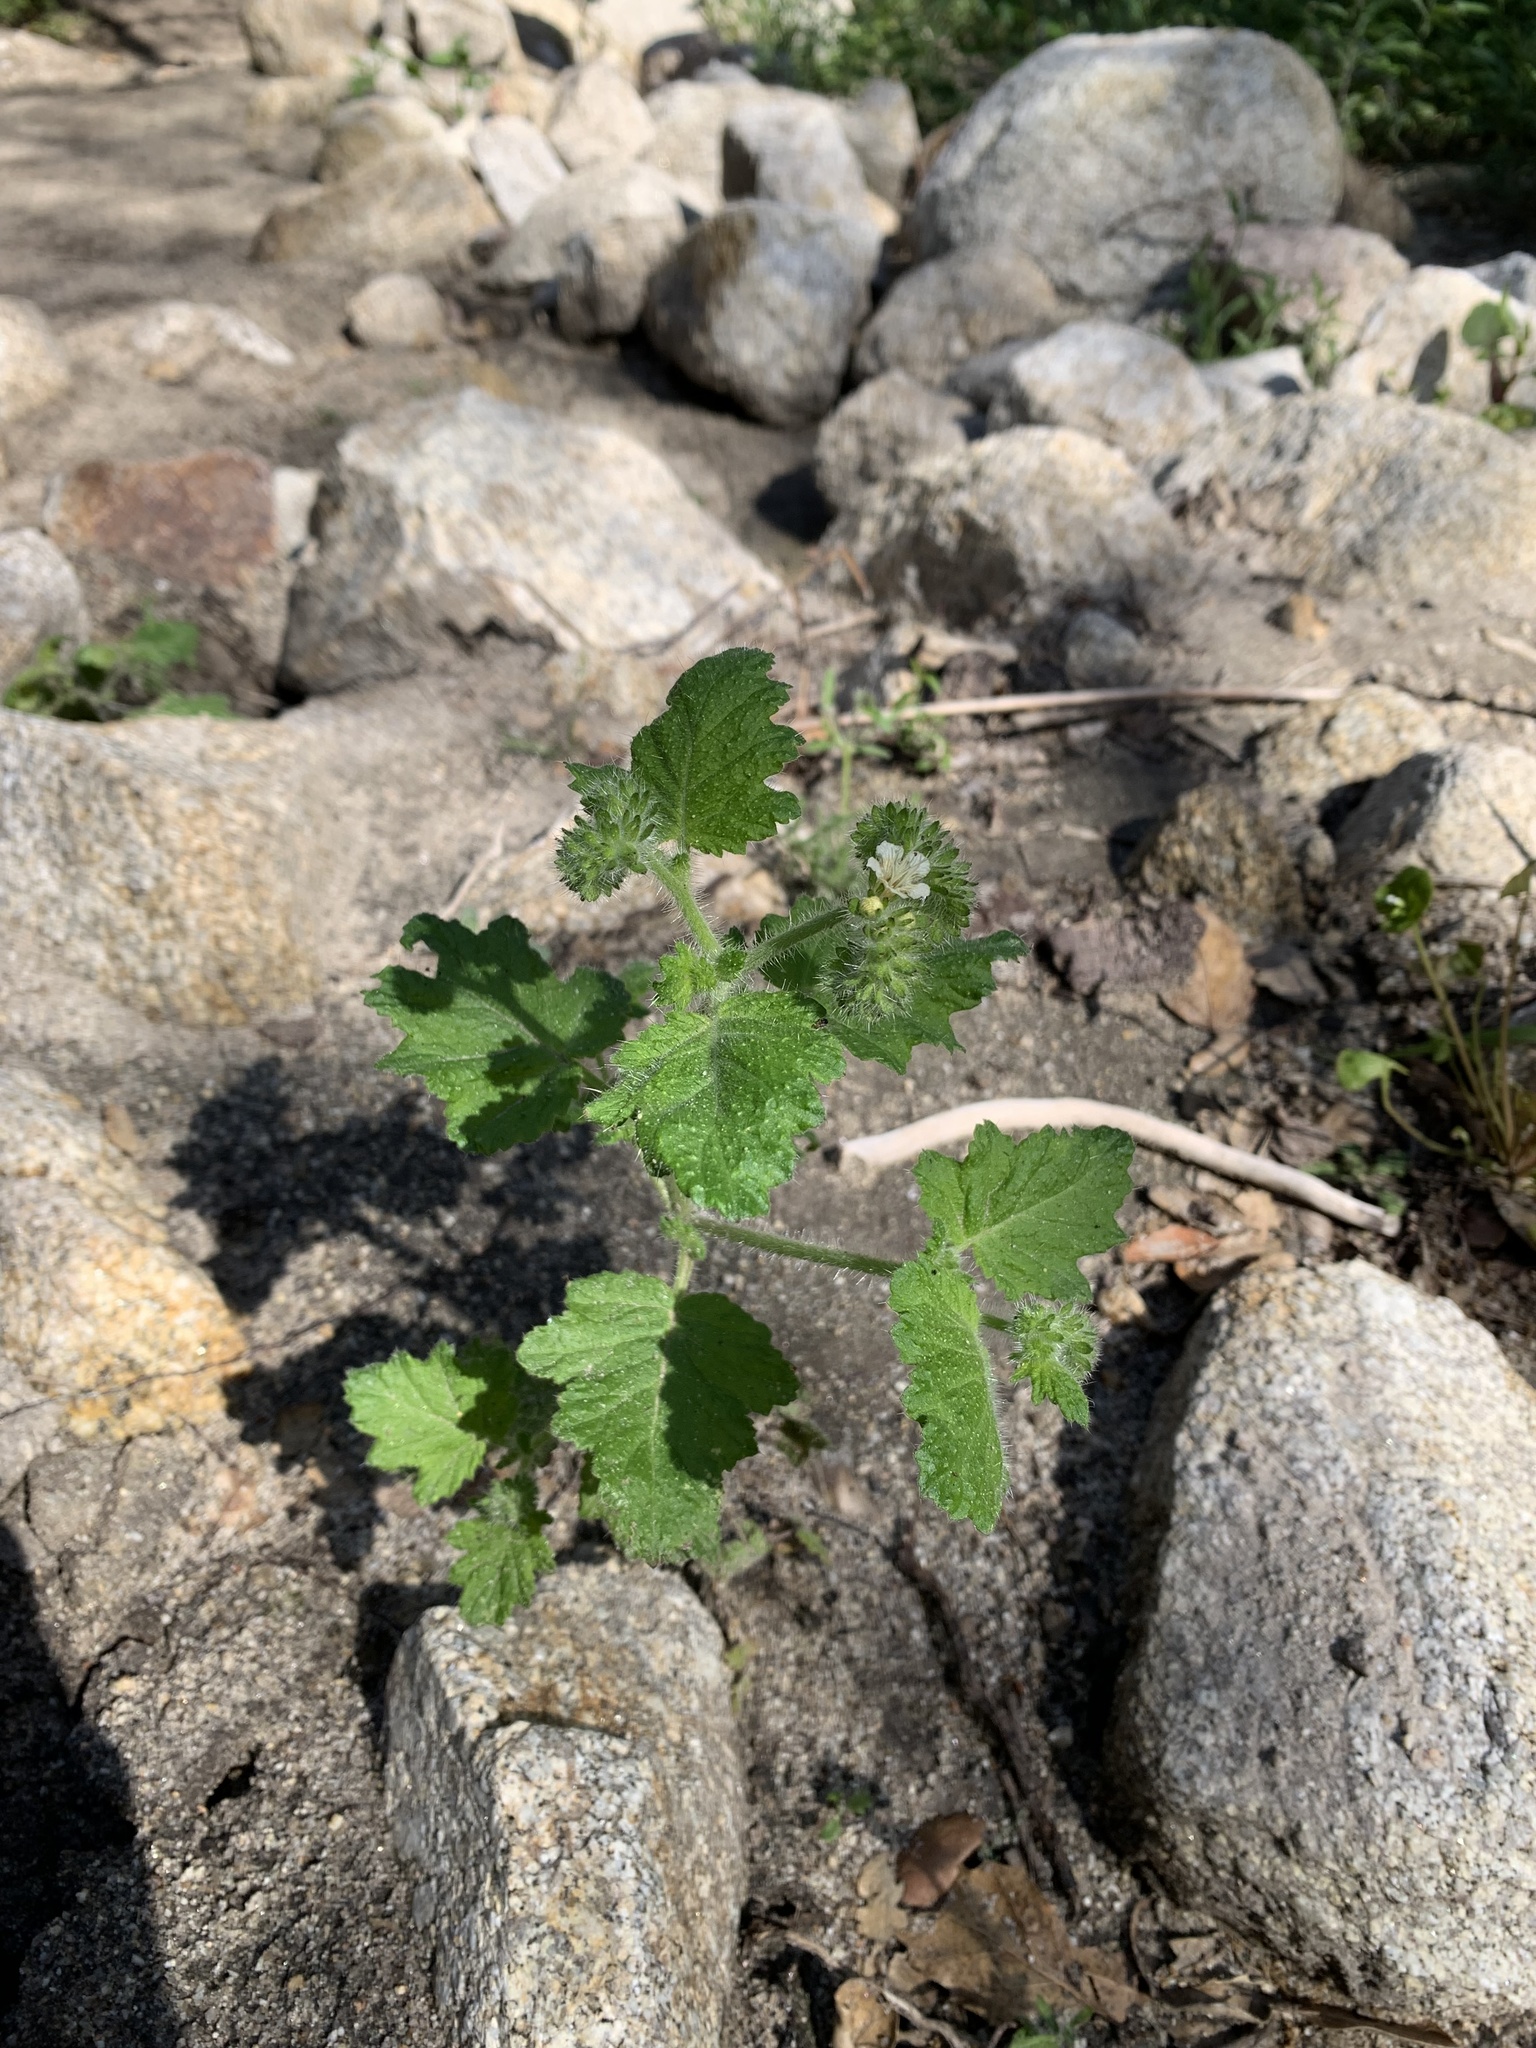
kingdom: Plantae
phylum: Tracheophyta
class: Magnoliopsida
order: Boraginales
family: Hydrophyllaceae
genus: Phacelia
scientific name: Phacelia malvifolia
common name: Mallow-leaf phacelia
